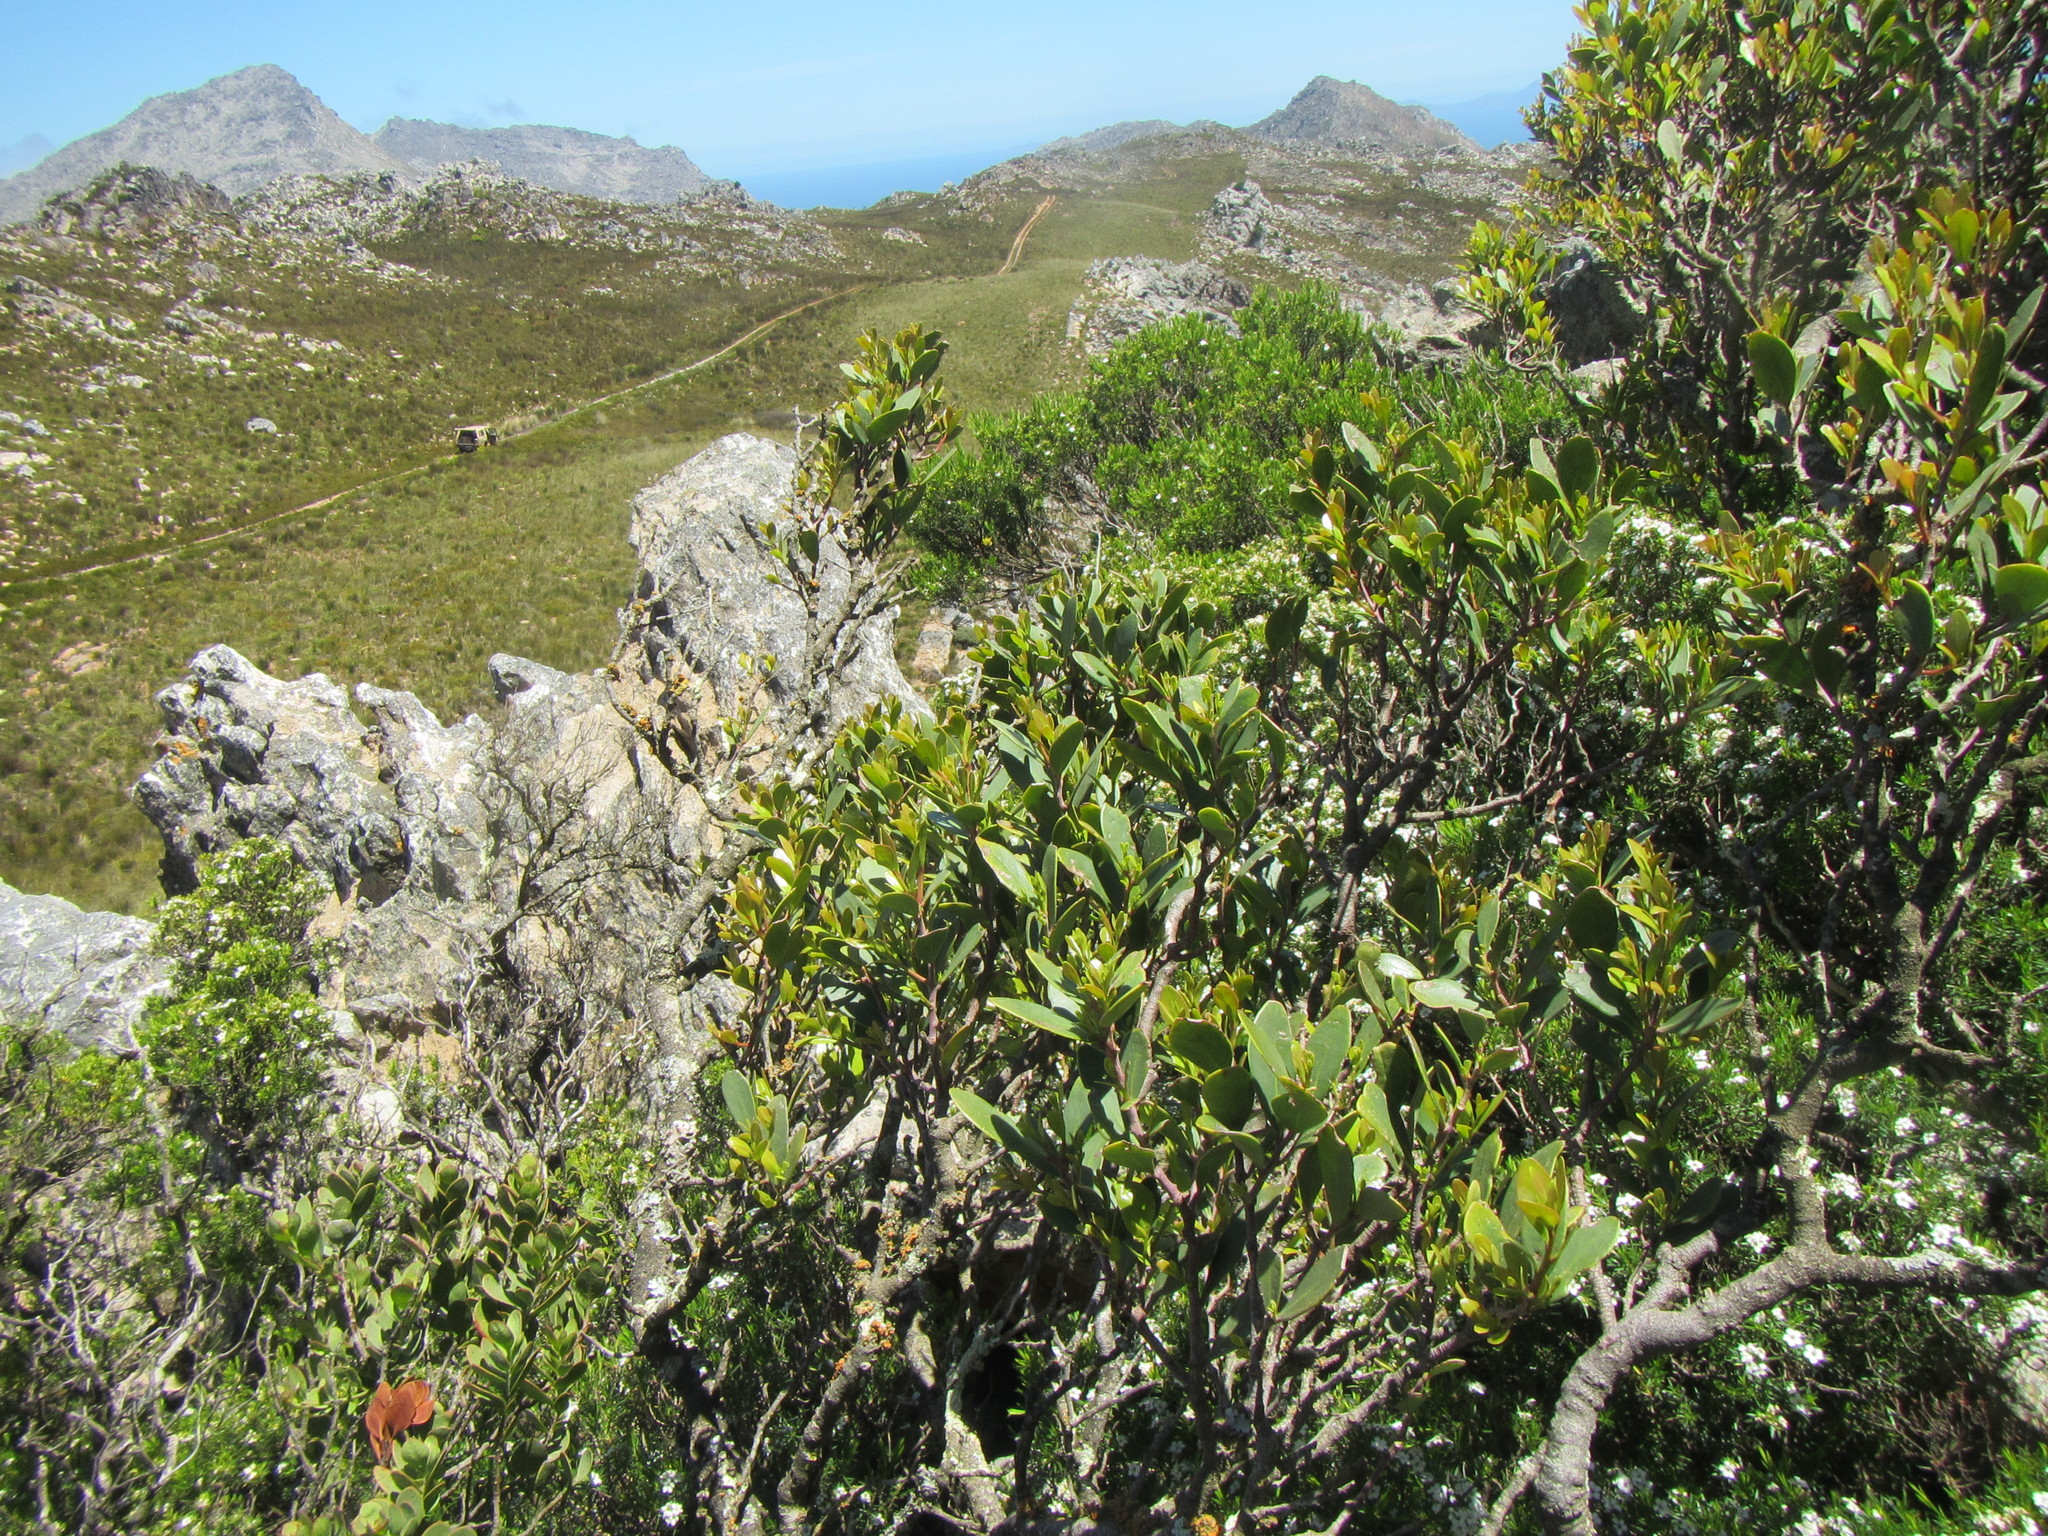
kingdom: Plantae
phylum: Tracheophyta
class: Magnoliopsida
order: Celastrales
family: Celastraceae
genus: Gymnosporia
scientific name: Gymnosporia laurina
